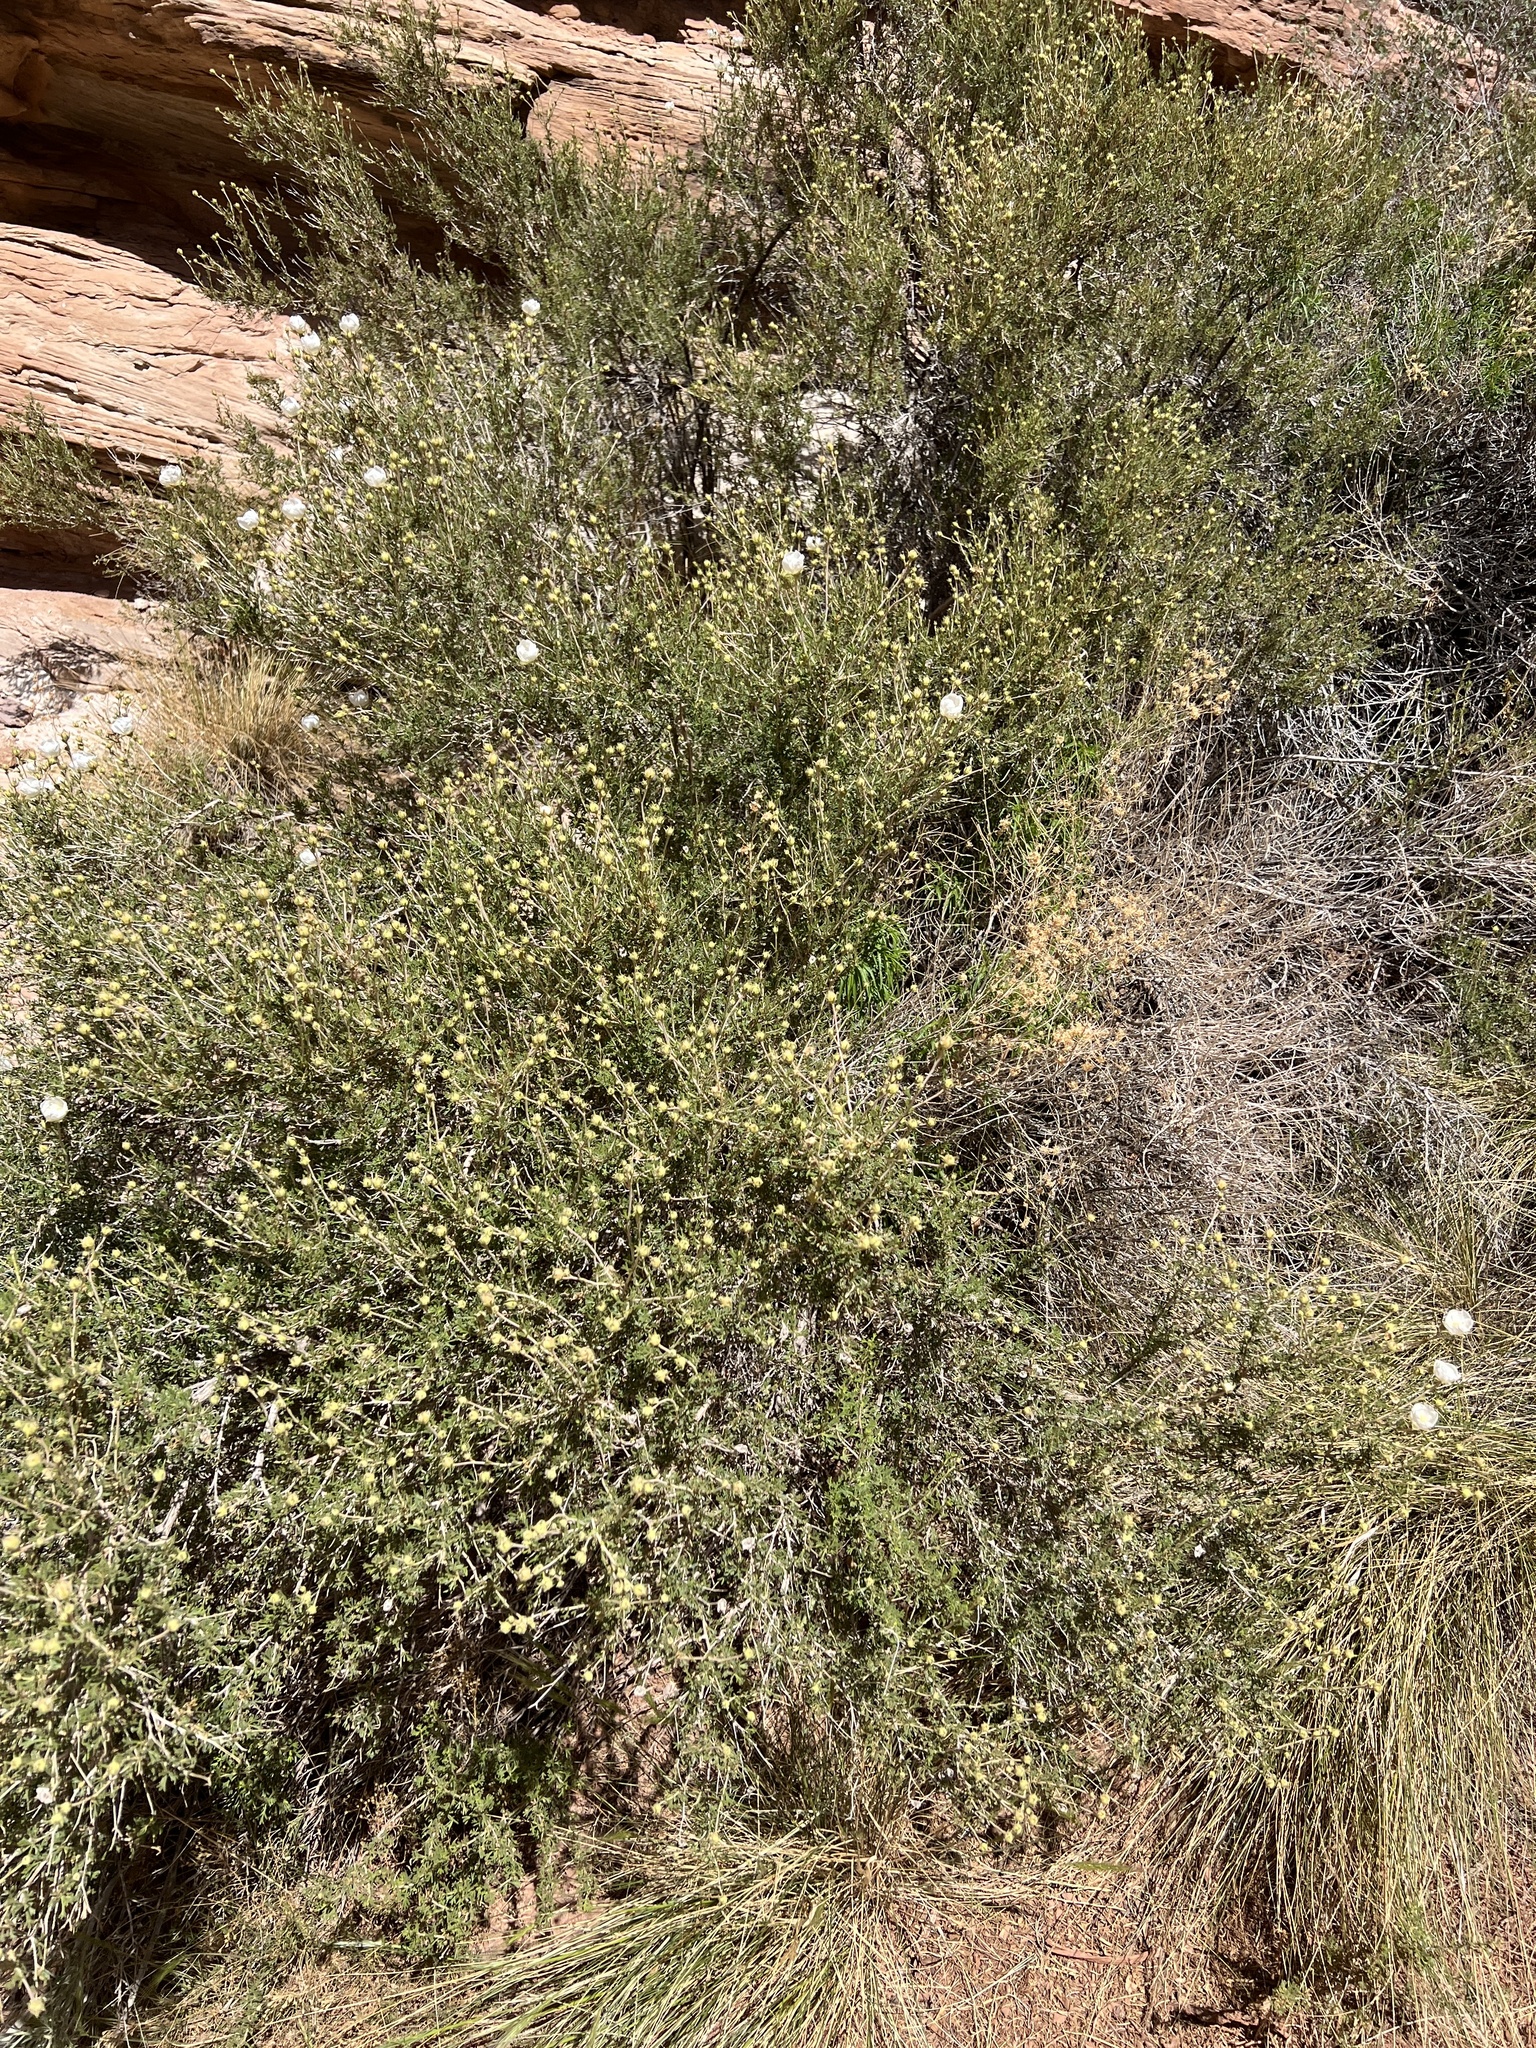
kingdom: Plantae
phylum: Tracheophyta
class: Magnoliopsida
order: Rosales
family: Rosaceae
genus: Fallugia
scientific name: Fallugia paradoxa
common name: Apache-plume
